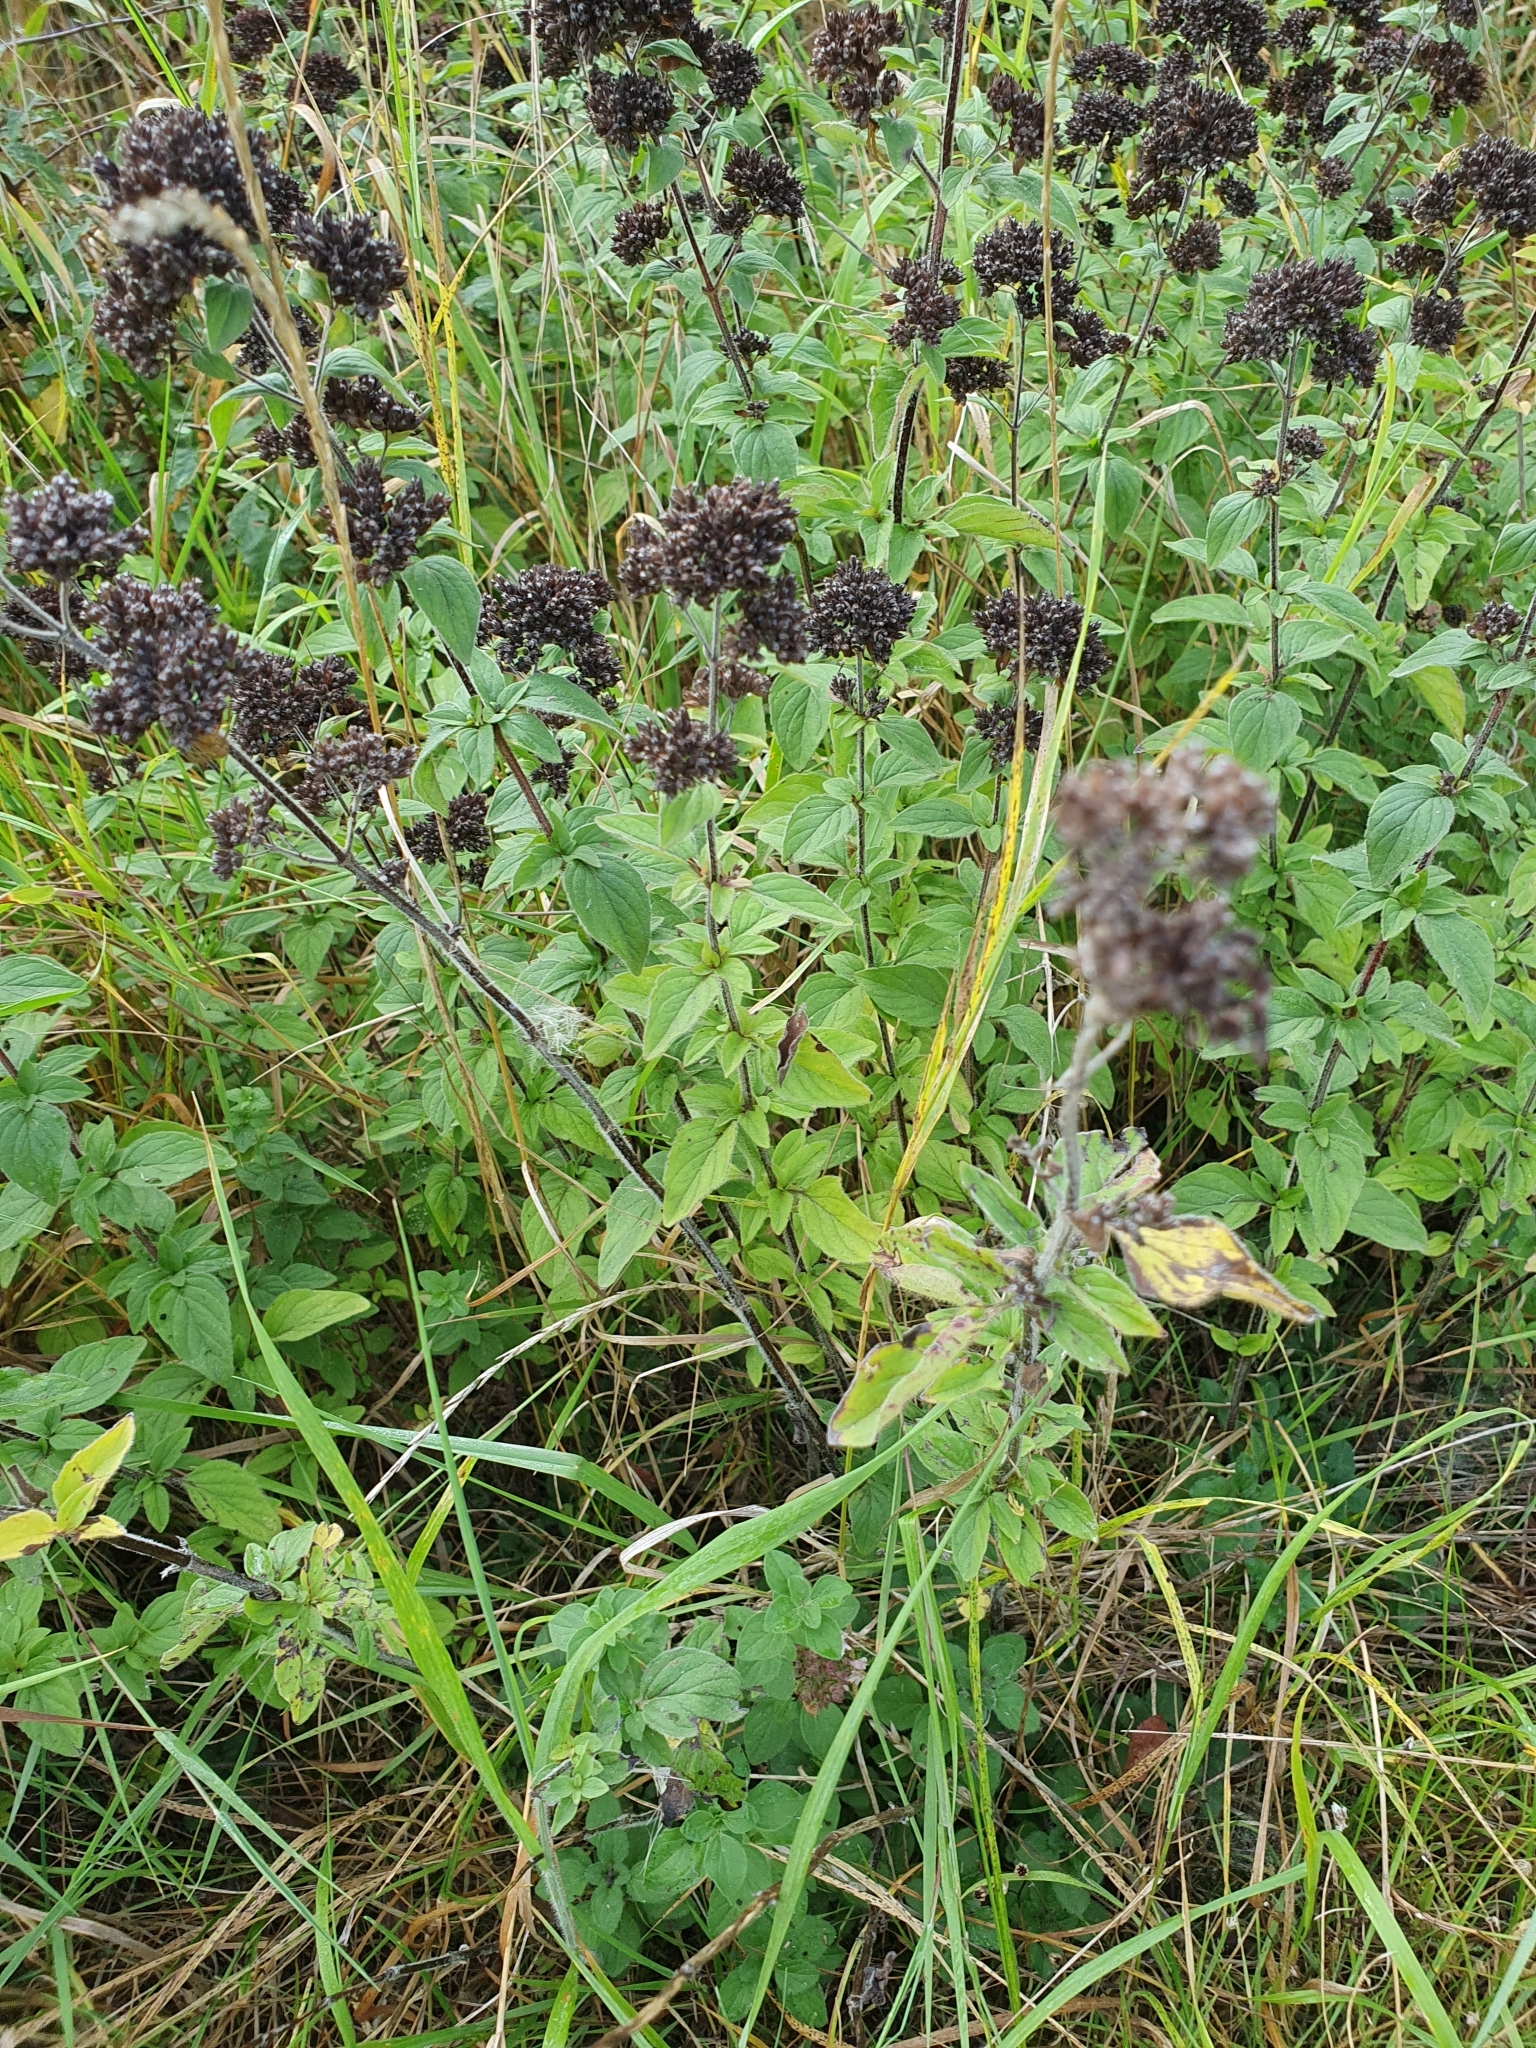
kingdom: Plantae
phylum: Tracheophyta
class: Magnoliopsida
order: Lamiales
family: Lamiaceae
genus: Origanum
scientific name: Origanum vulgare
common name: Wild marjoram
